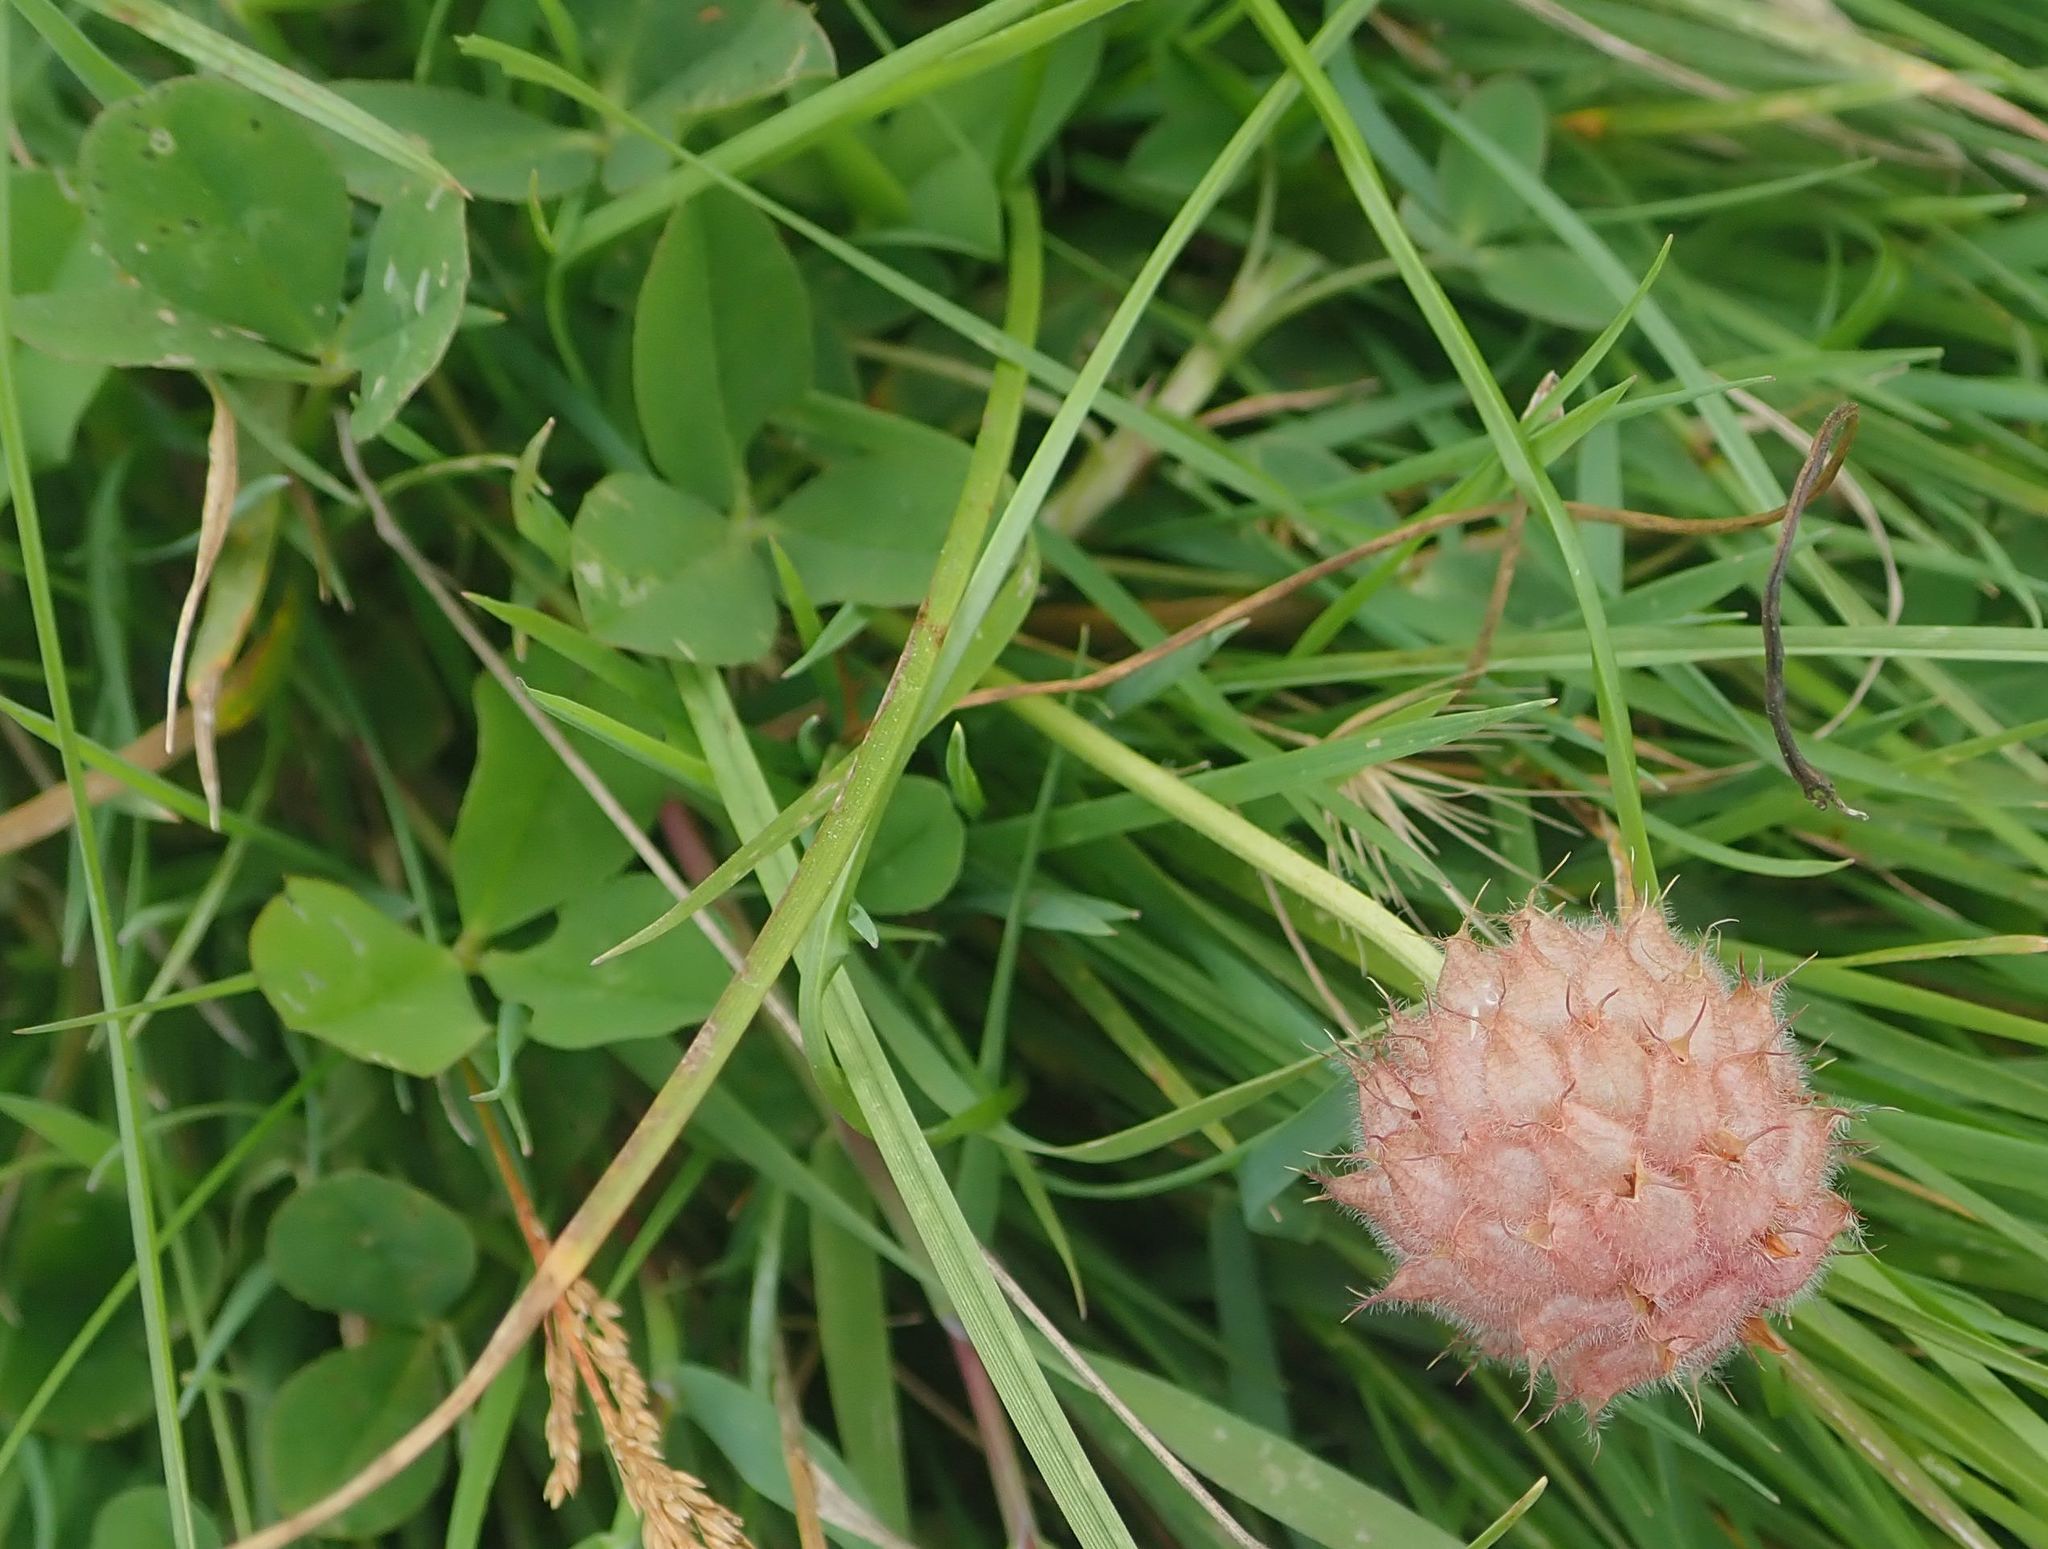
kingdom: Plantae
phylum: Tracheophyta
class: Magnoliopsida
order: Fabales
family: Fabaceae
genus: Trifolium
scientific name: Trifolium fragiferum
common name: Strawberry clover
